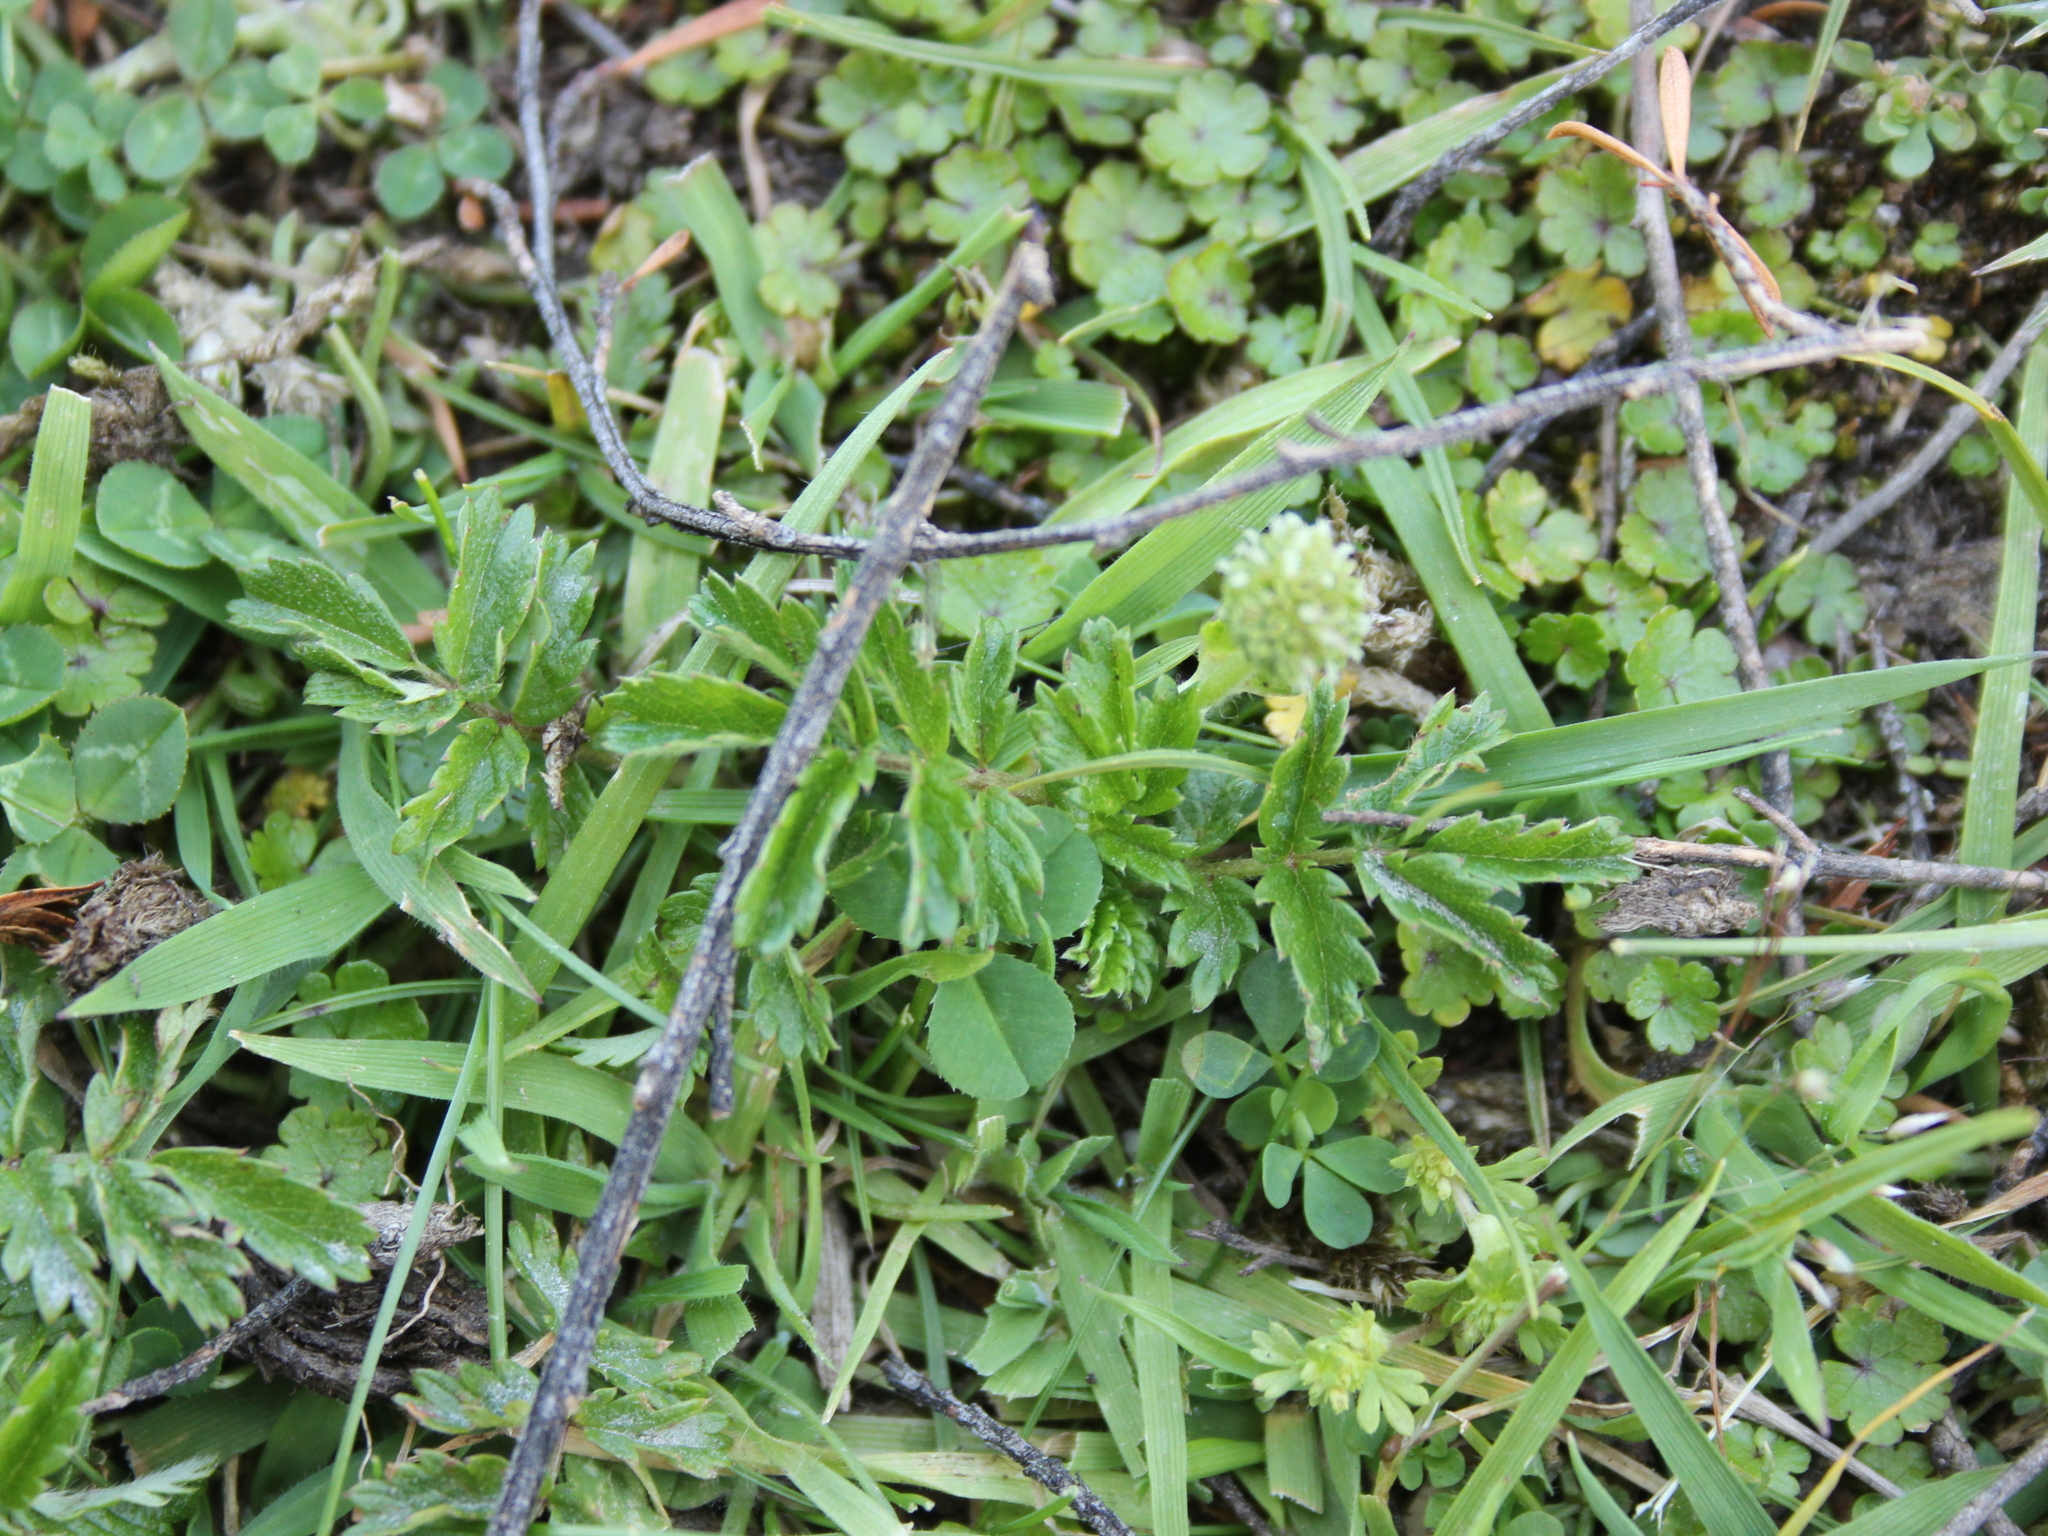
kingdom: Plantae
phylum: Tracheophyta
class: Magnoliopsida
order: Rosales
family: Rosaceae
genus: Acaena
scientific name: Acaena novae-zelandiae
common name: Pirri-pirri-bur
